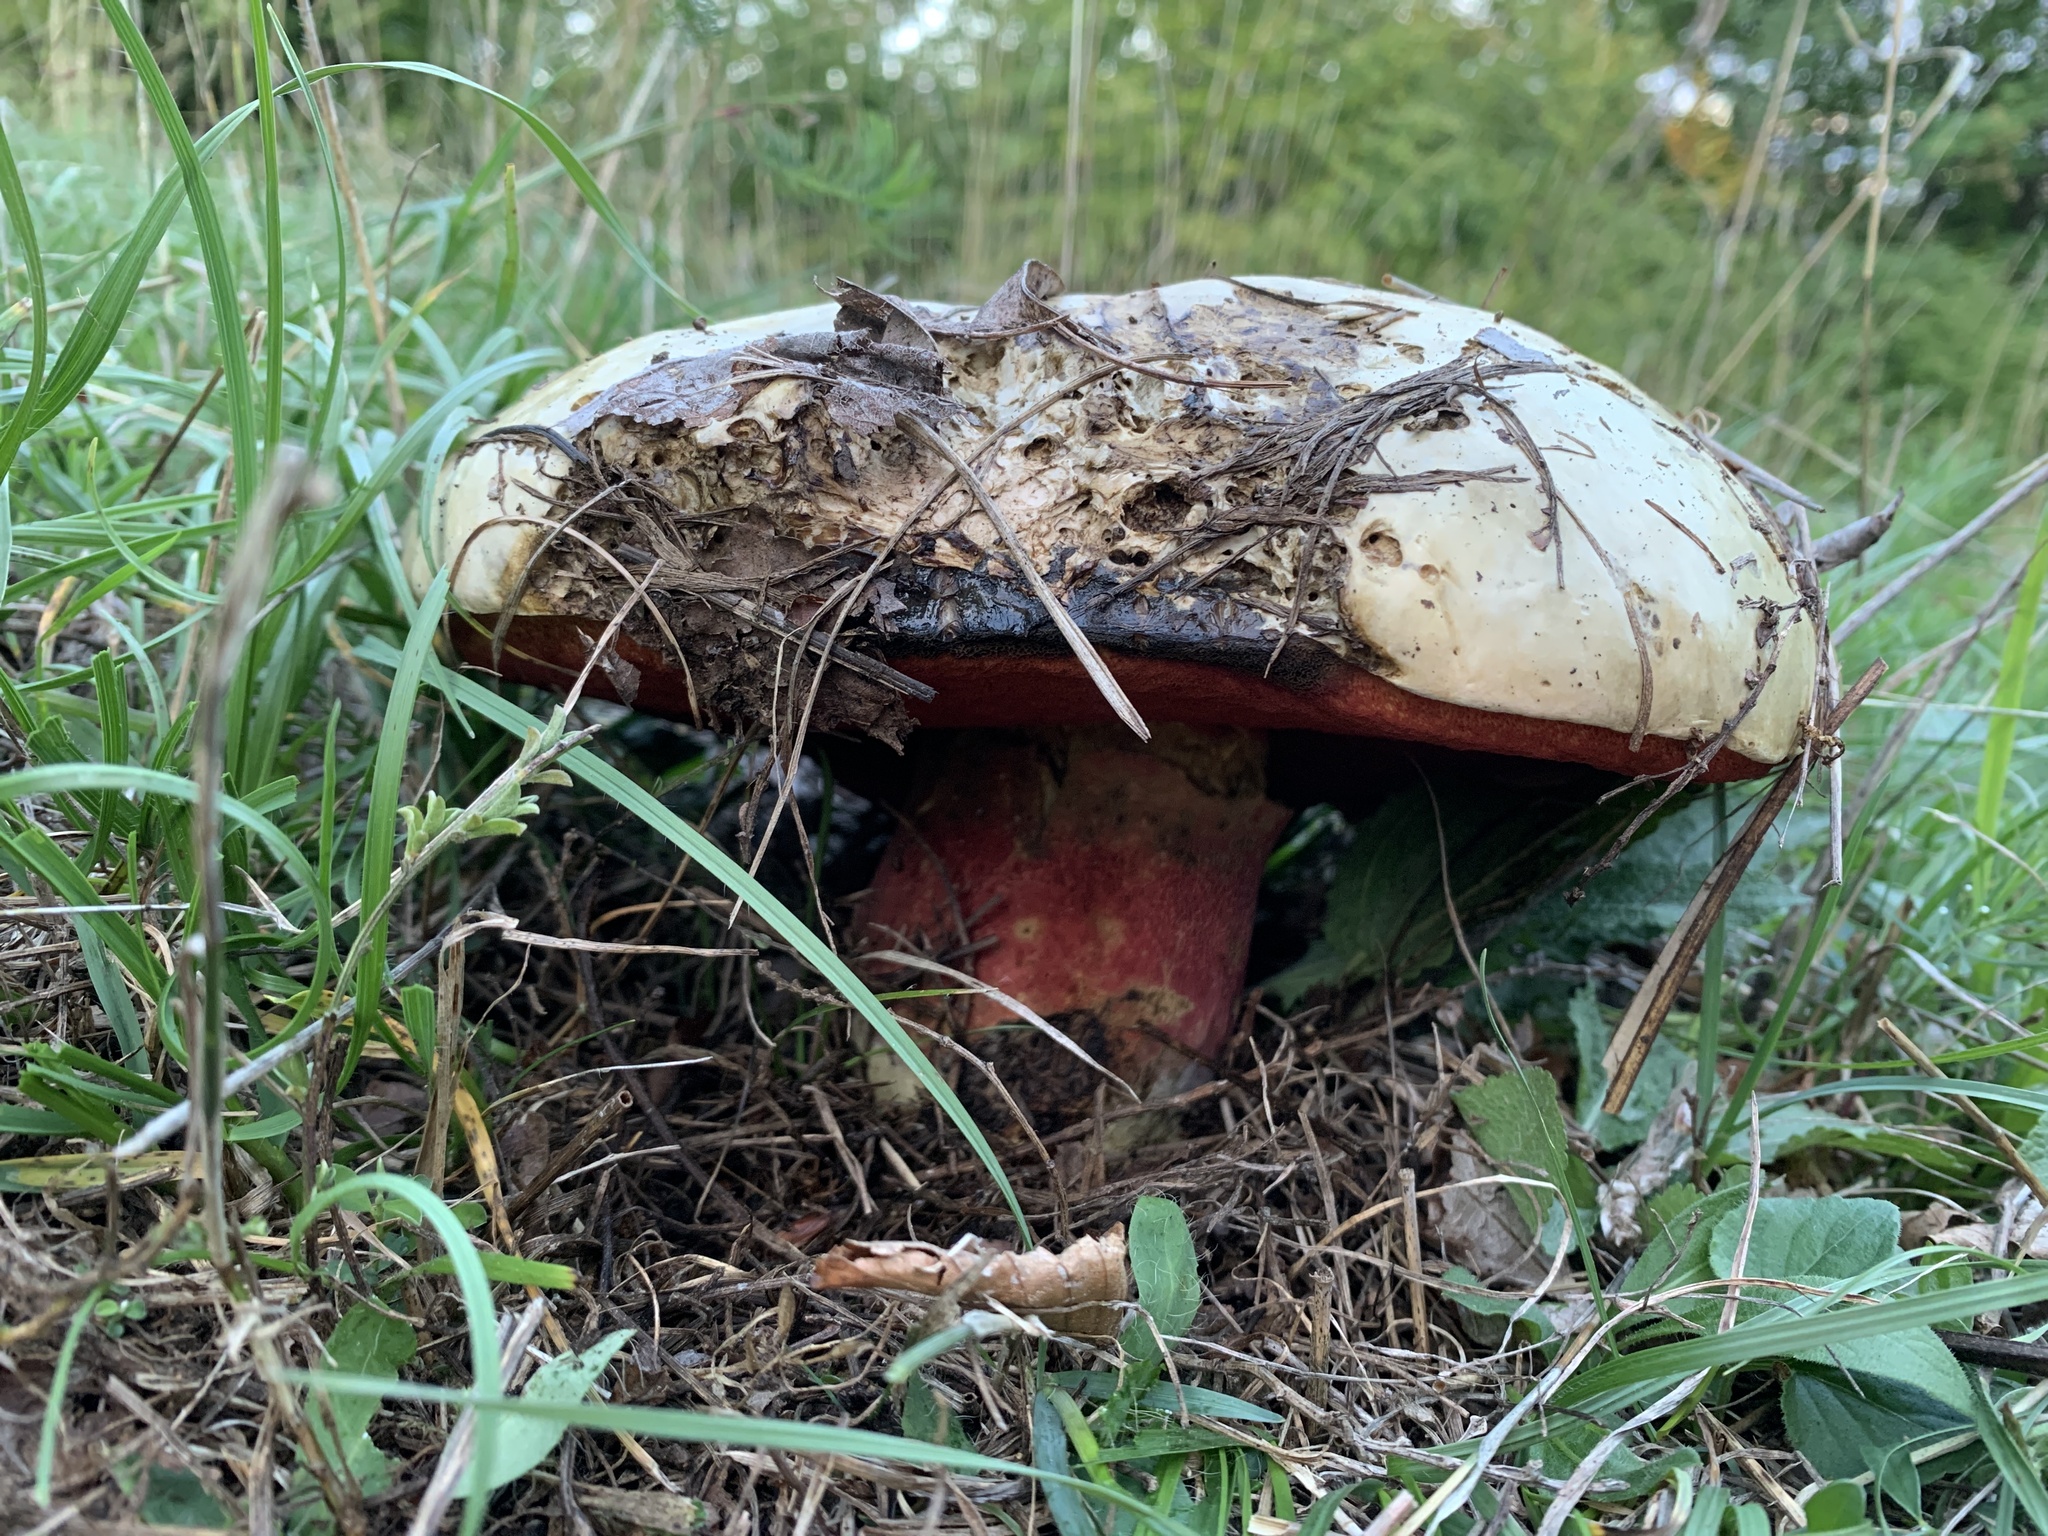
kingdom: Fungi
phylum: Basidiomycota
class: Agaricomycetes
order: Boletales
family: Boletaceae
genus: Rubroboletus
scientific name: Rubroboletus satanas
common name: Devil's bolete
